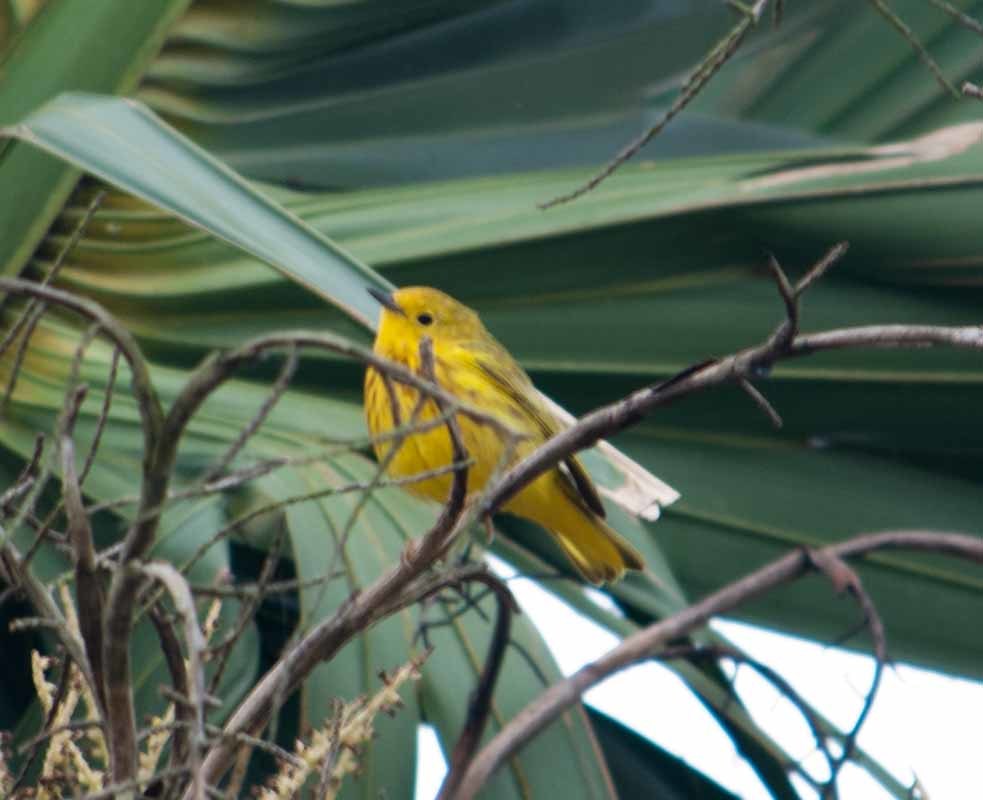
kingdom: Animalia
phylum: Chordata
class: Aves
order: Passeriformes
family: Parulidae
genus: Setophaga
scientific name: Setophaga petechia
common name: Yellow warbler
